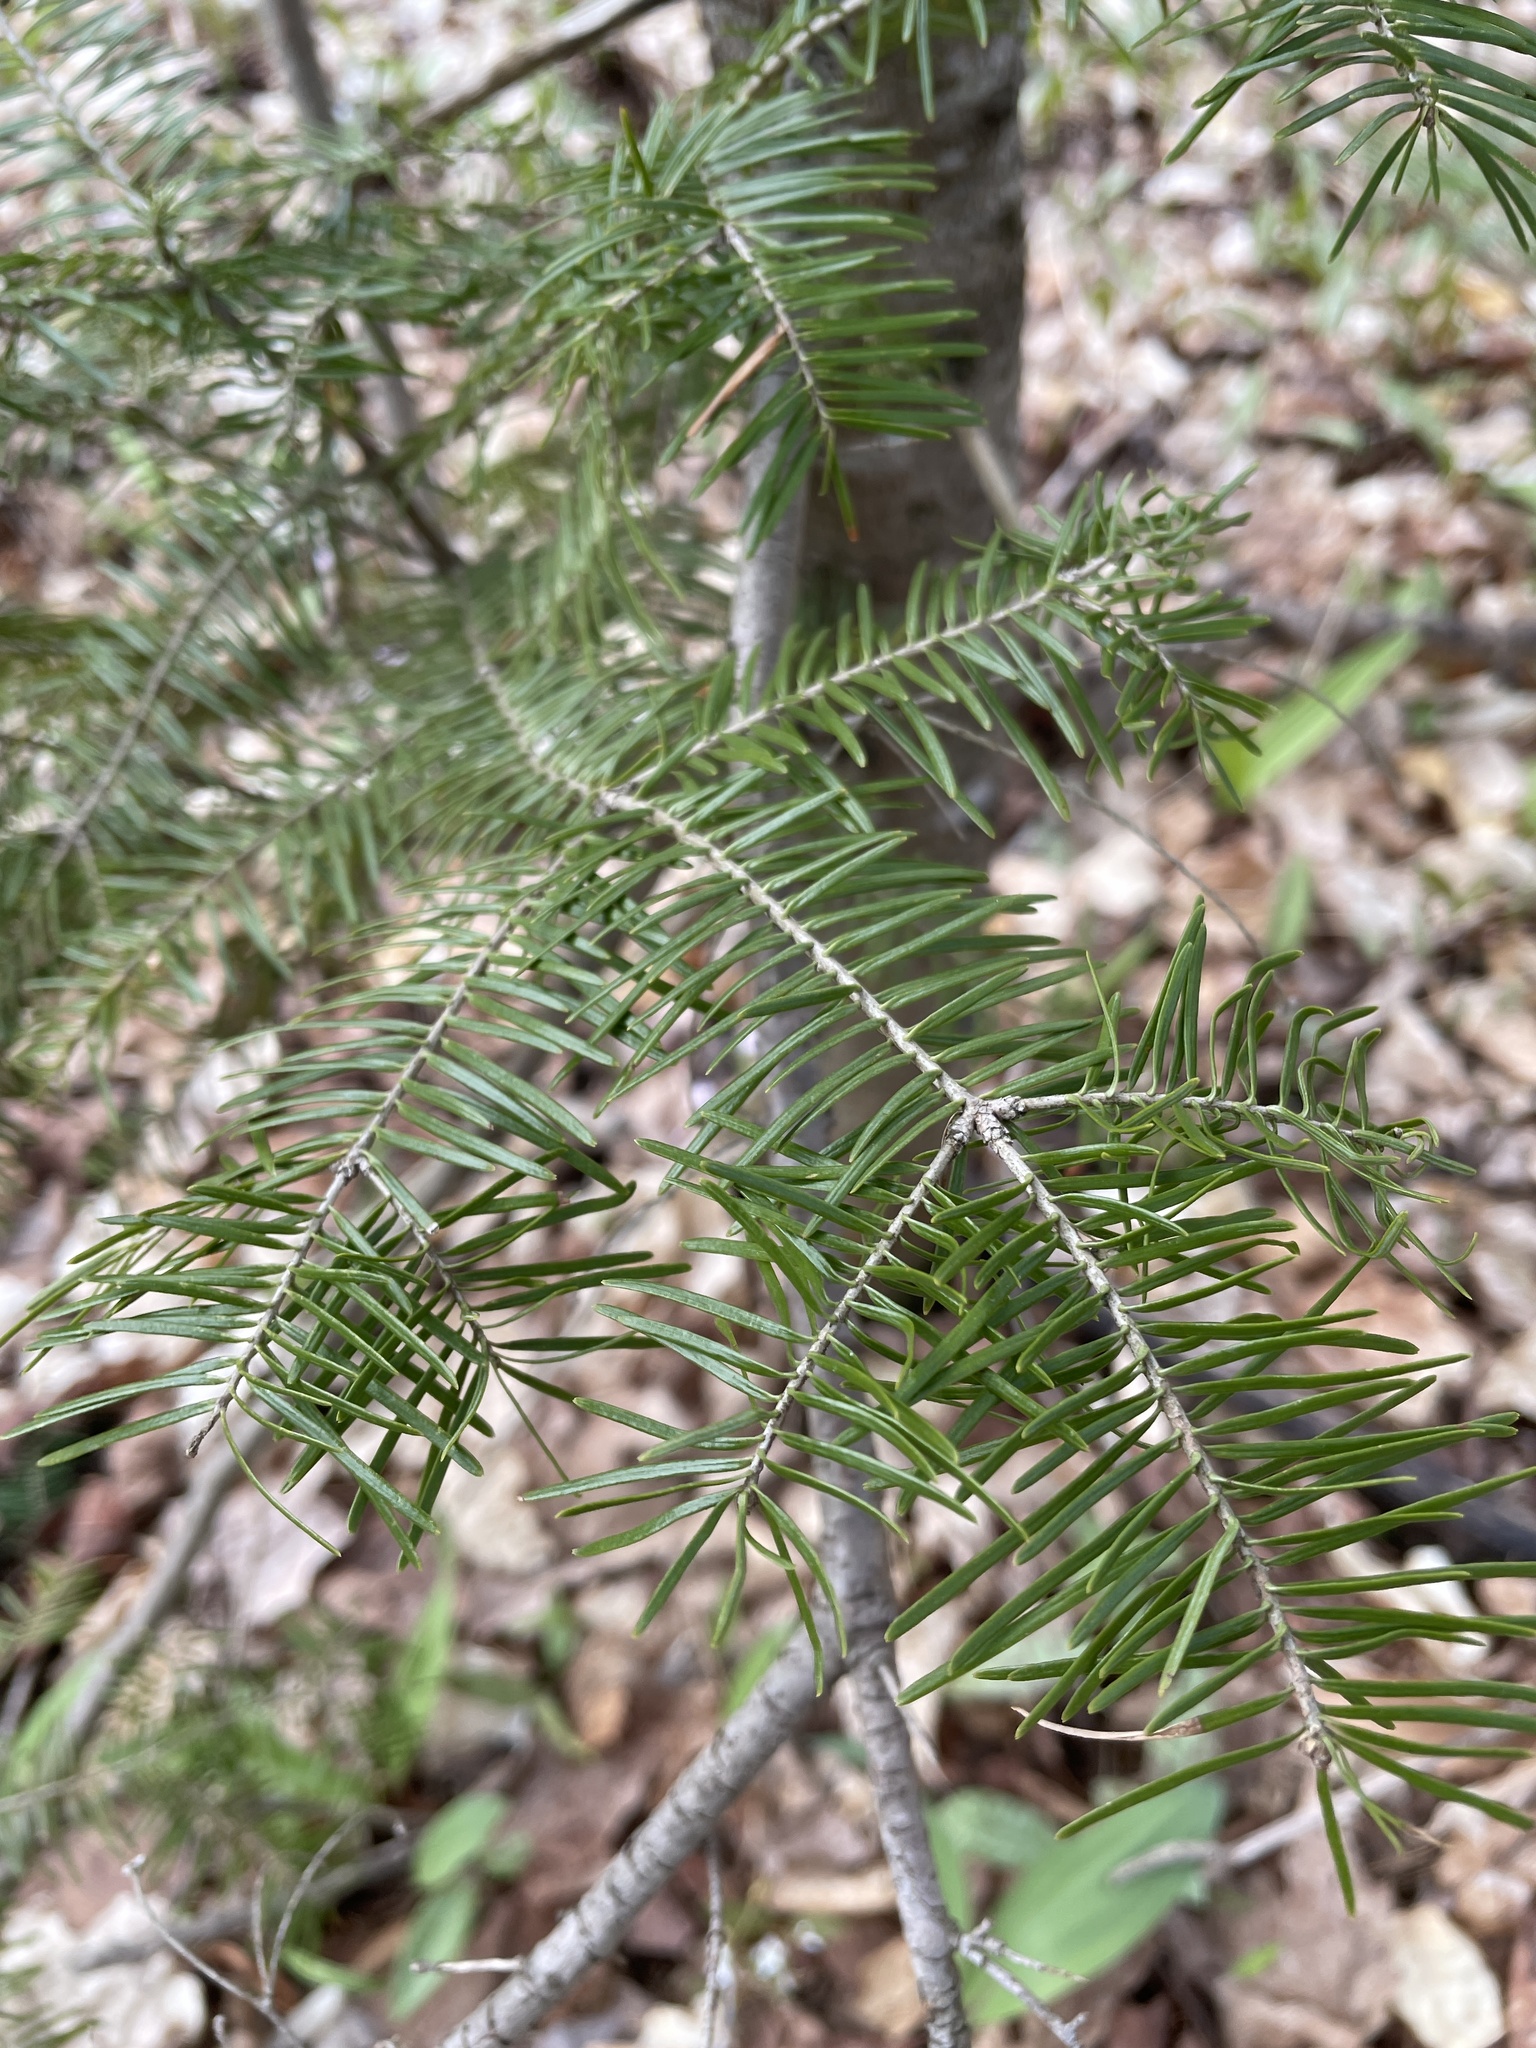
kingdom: Plantae
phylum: Tracheophyta
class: Pinopsida
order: Pinales
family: Pinaceae
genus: Abies
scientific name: Abies balsamea
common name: Balsam fir
